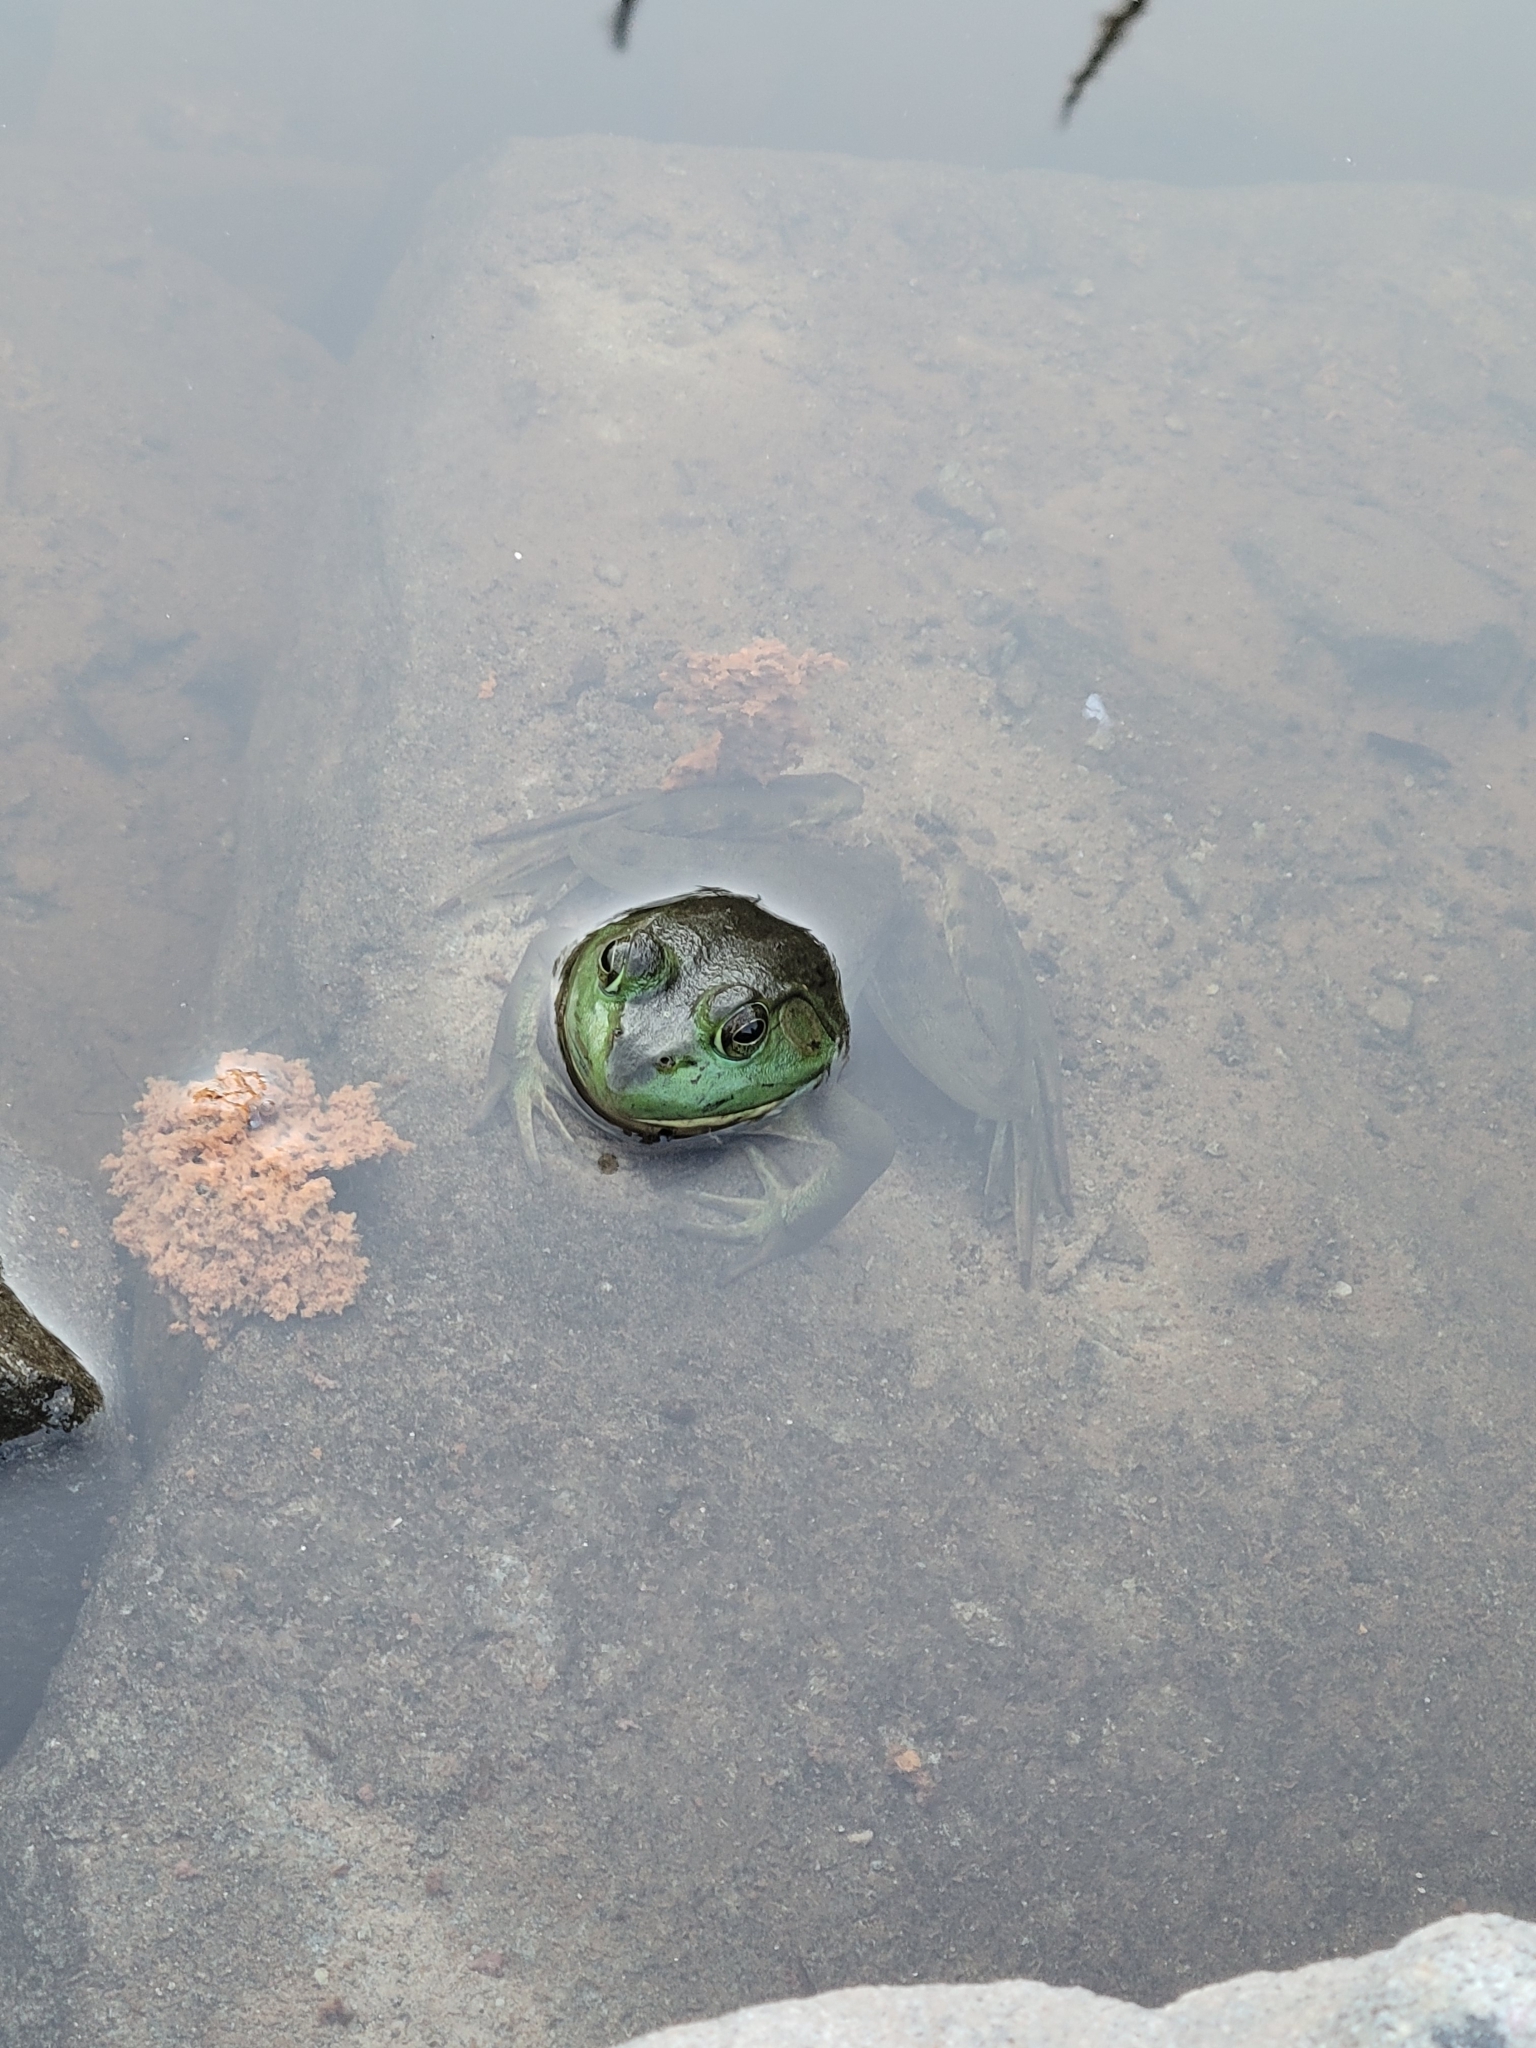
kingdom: Animalia
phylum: Chordata
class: Amphibia
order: Anura
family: Ranidae
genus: Lithobates
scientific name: Lithobates catesbeianus
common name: American bullfrog
